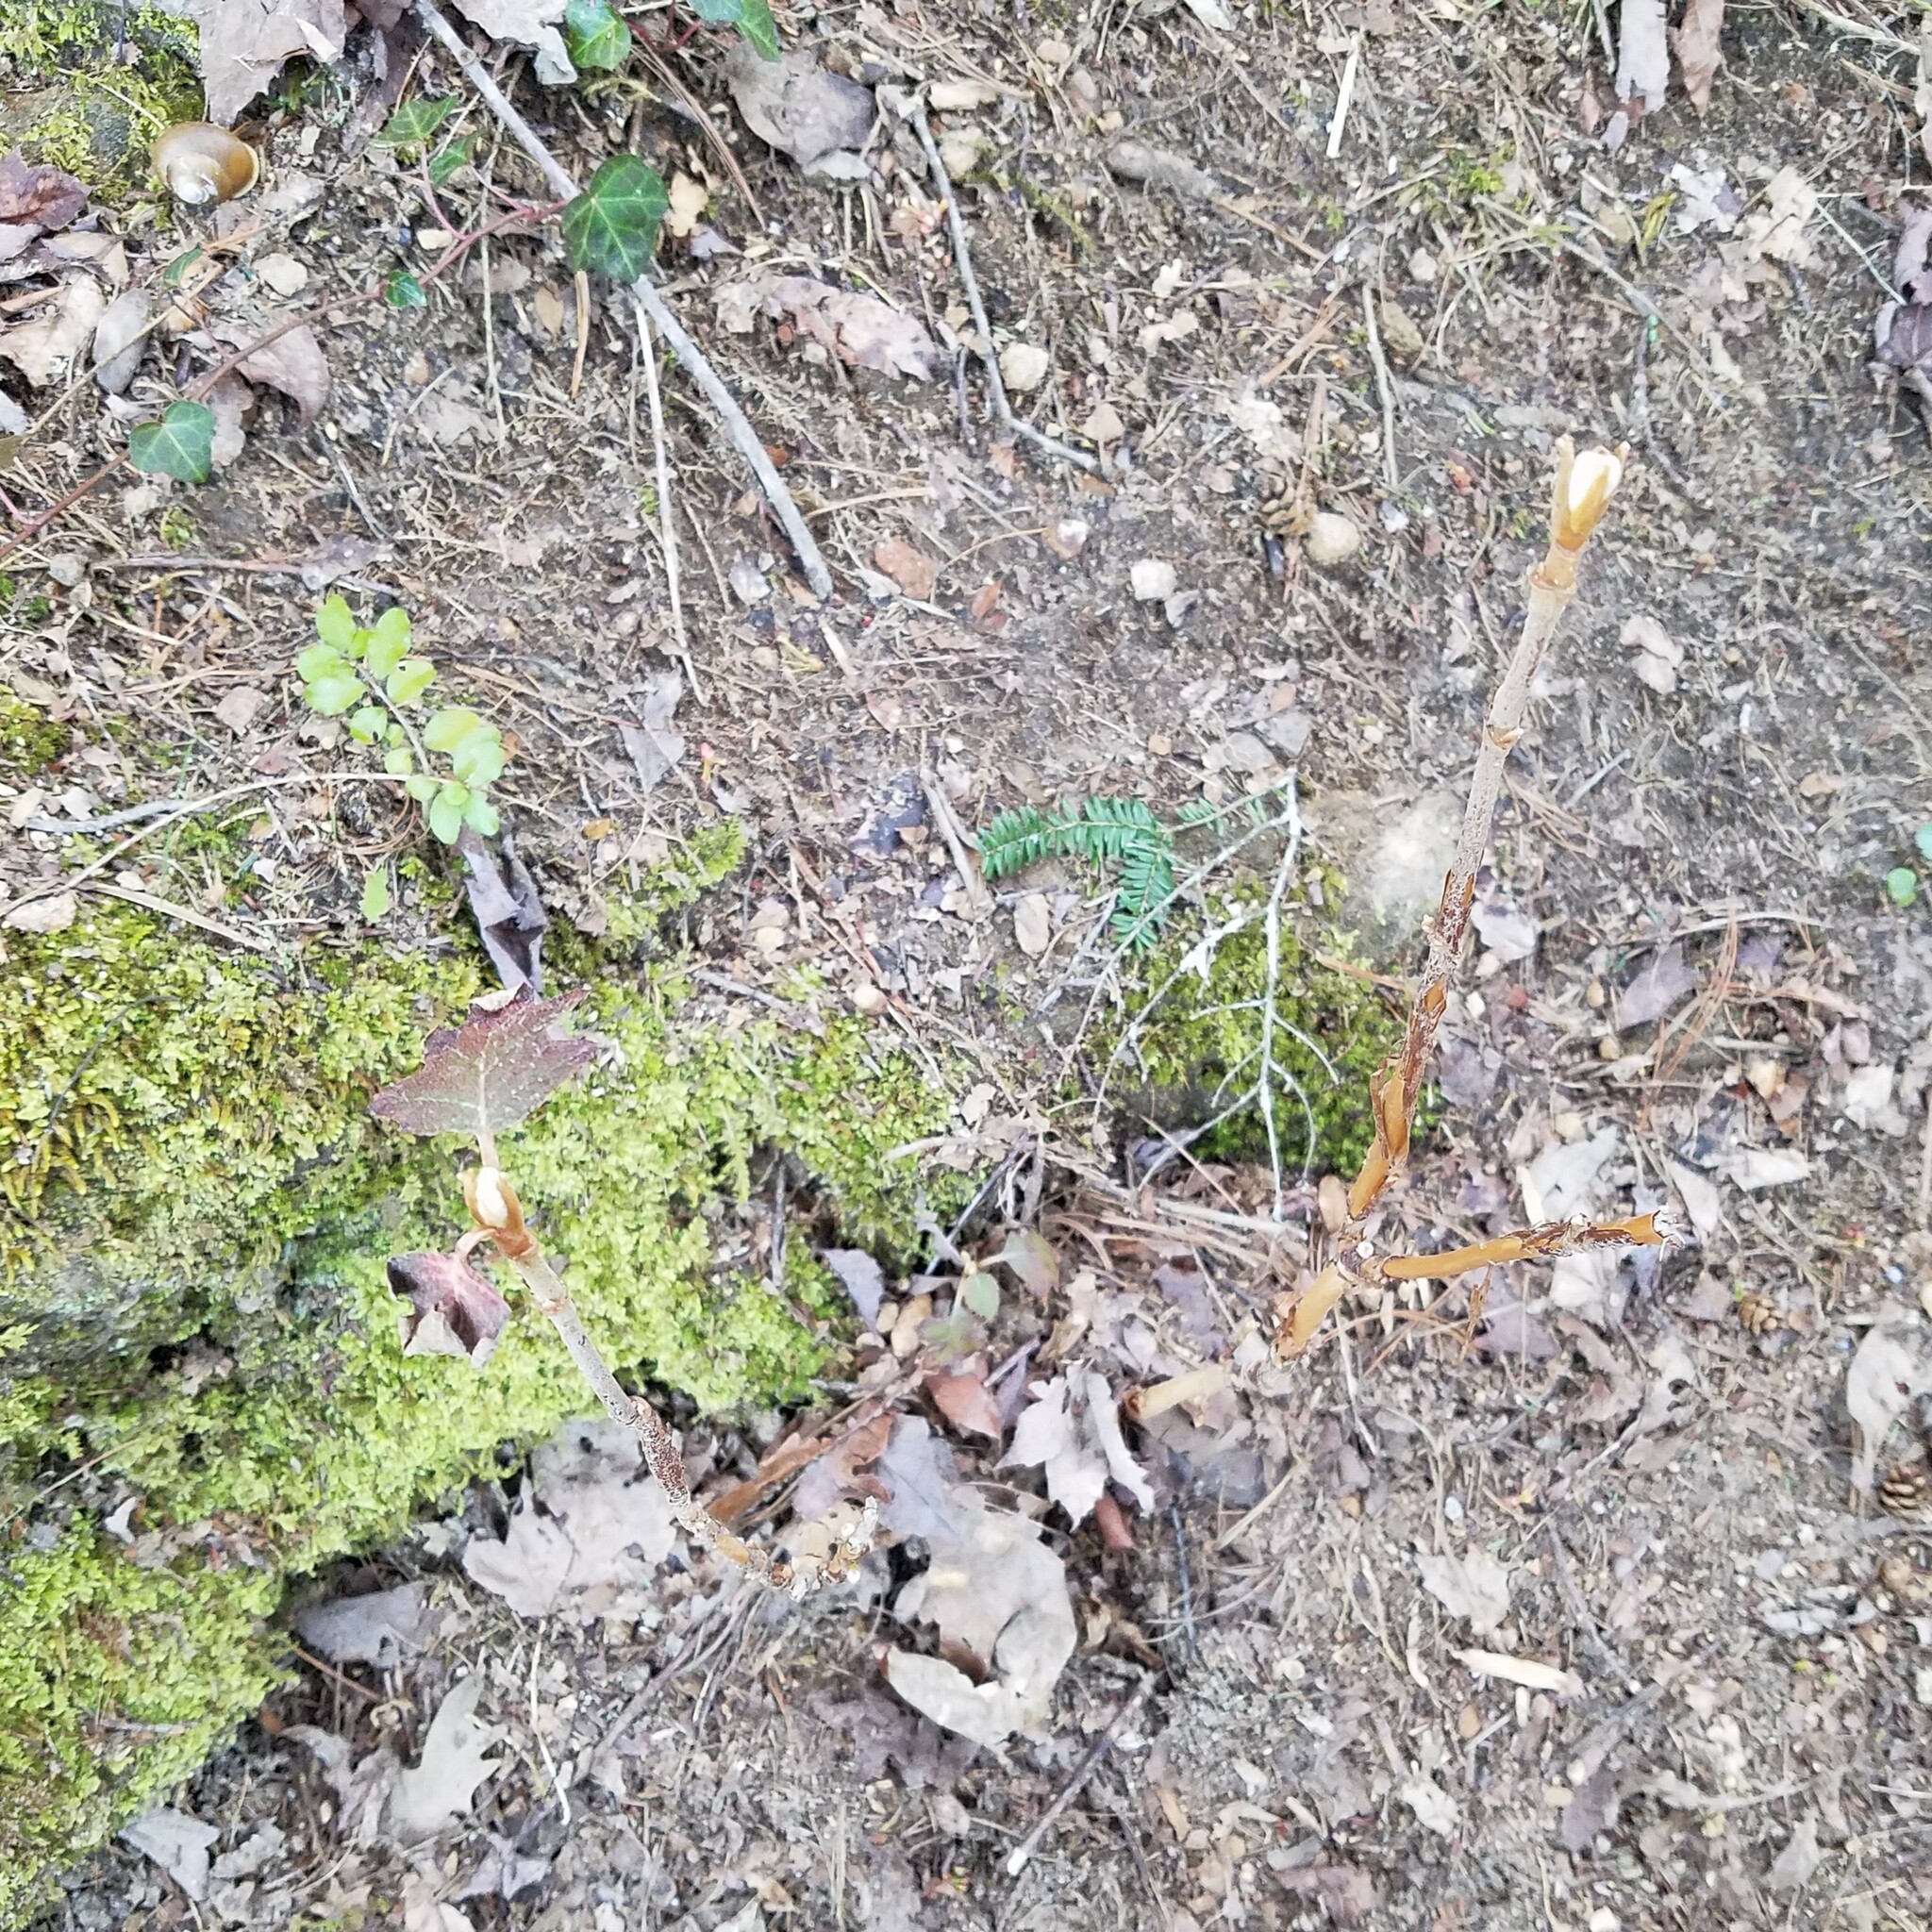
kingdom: Plantae
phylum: Tracheophyta
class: Magnoliopsida
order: Cornales
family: Hydrangeaceae
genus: Hydrangea
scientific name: Hydrangea quercifolia
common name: Oak-leaf hydrangea
